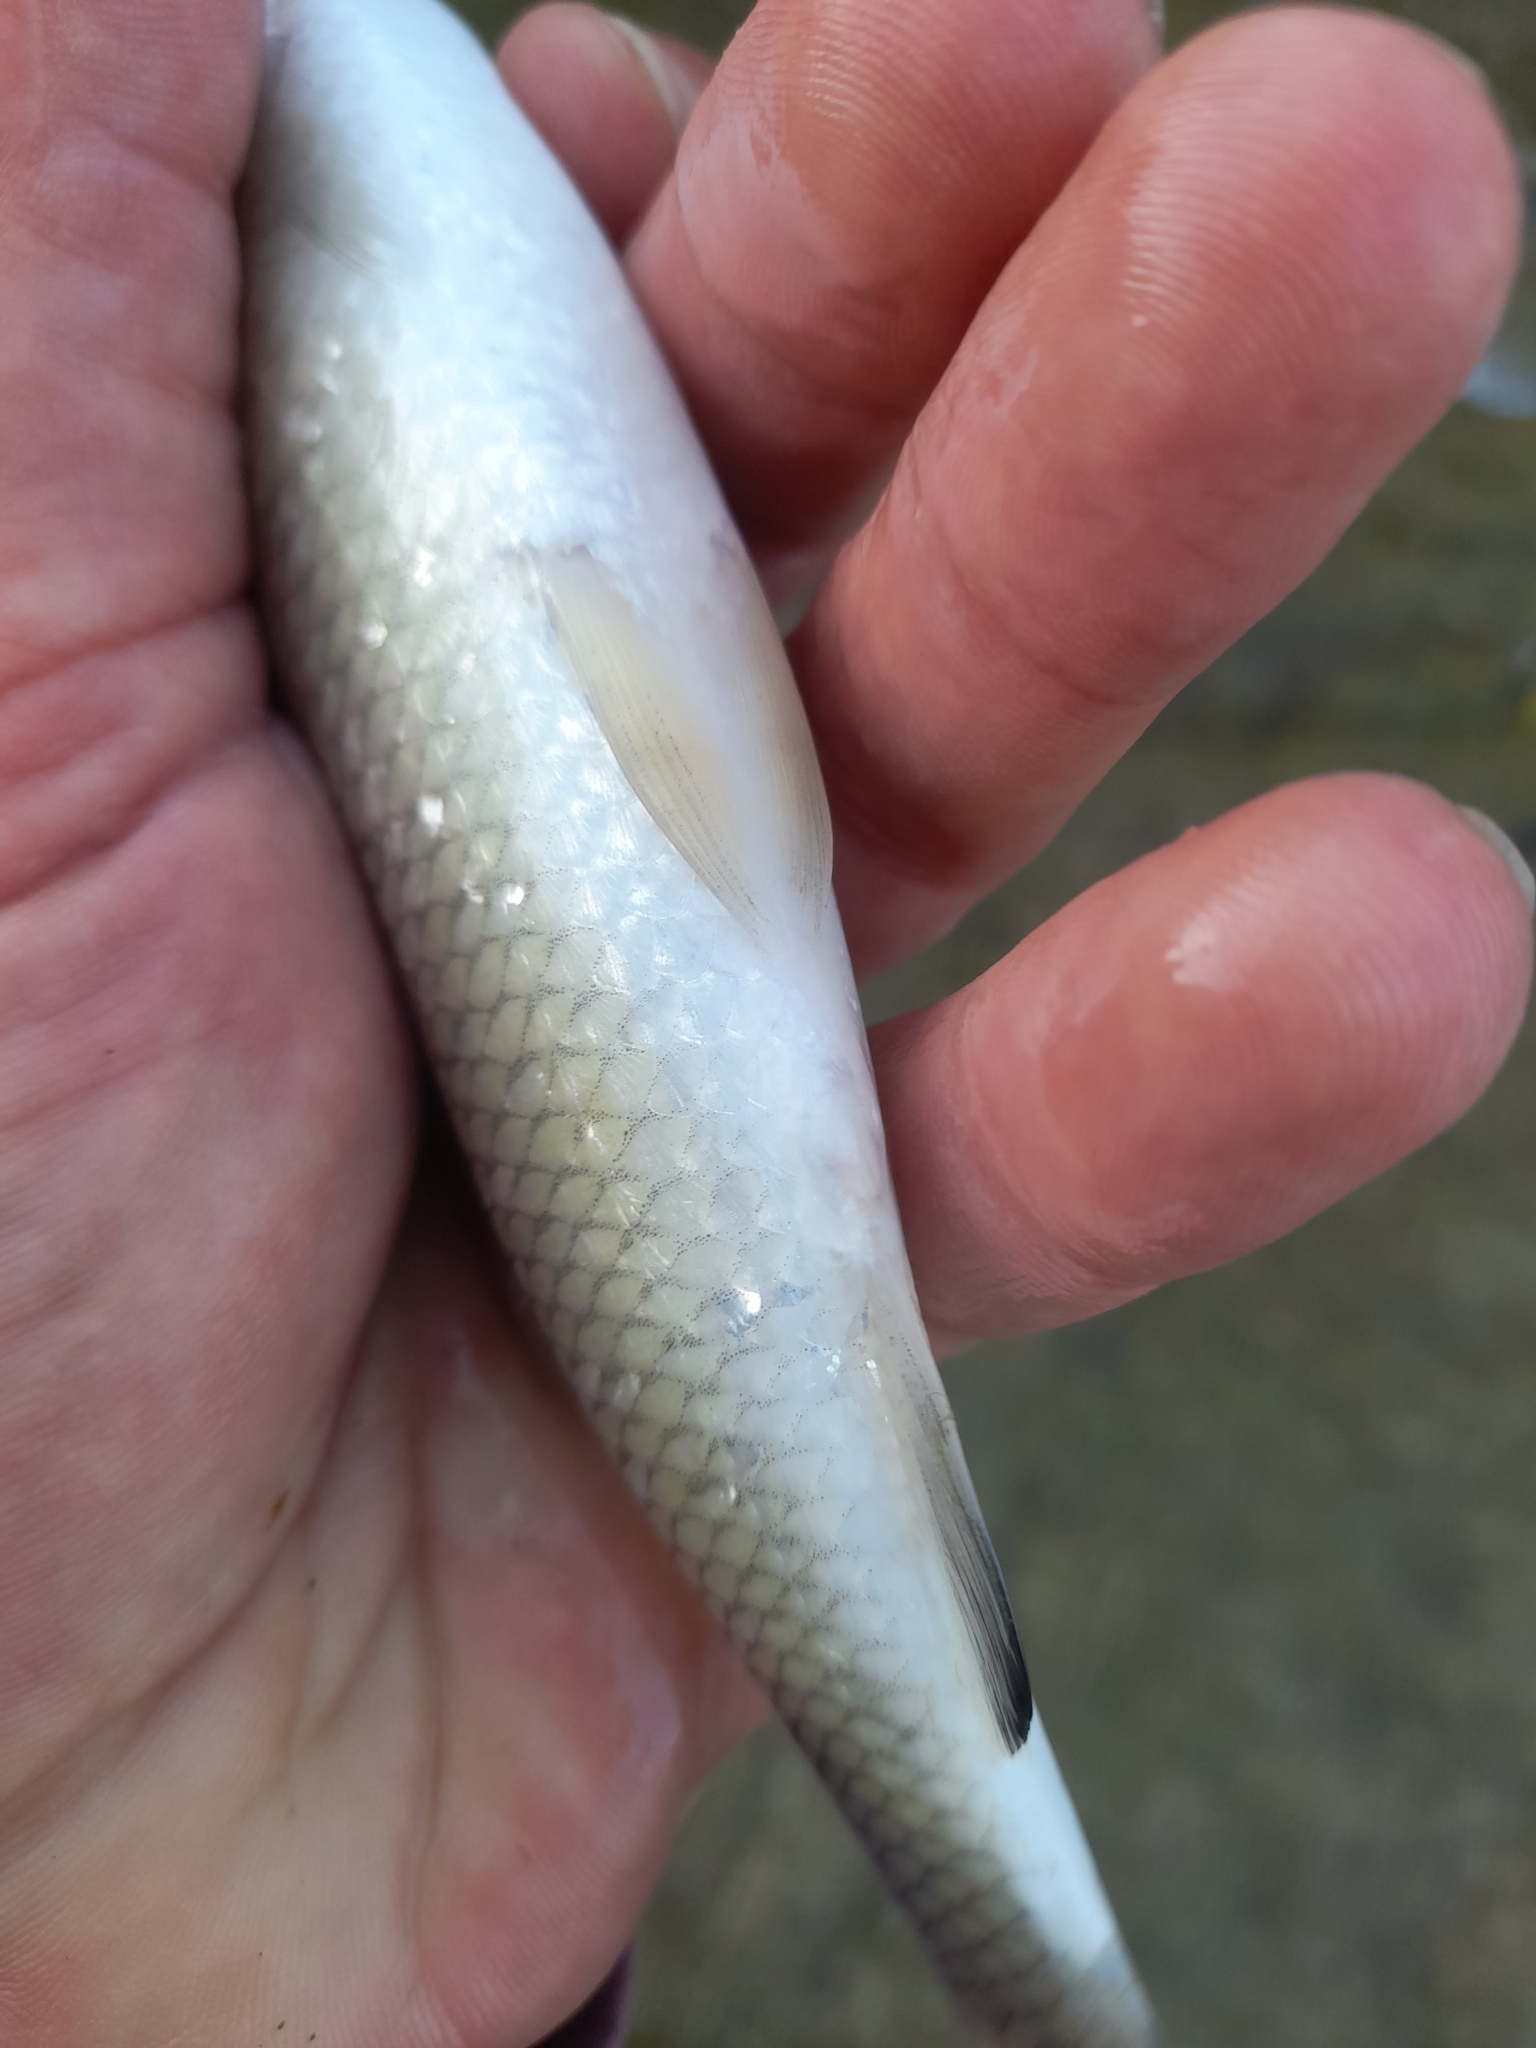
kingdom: Animalia
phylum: Chordata
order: Cypriniformes
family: Cyprinidae
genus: Squalius
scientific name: Squalius squalus
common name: Italian chub
